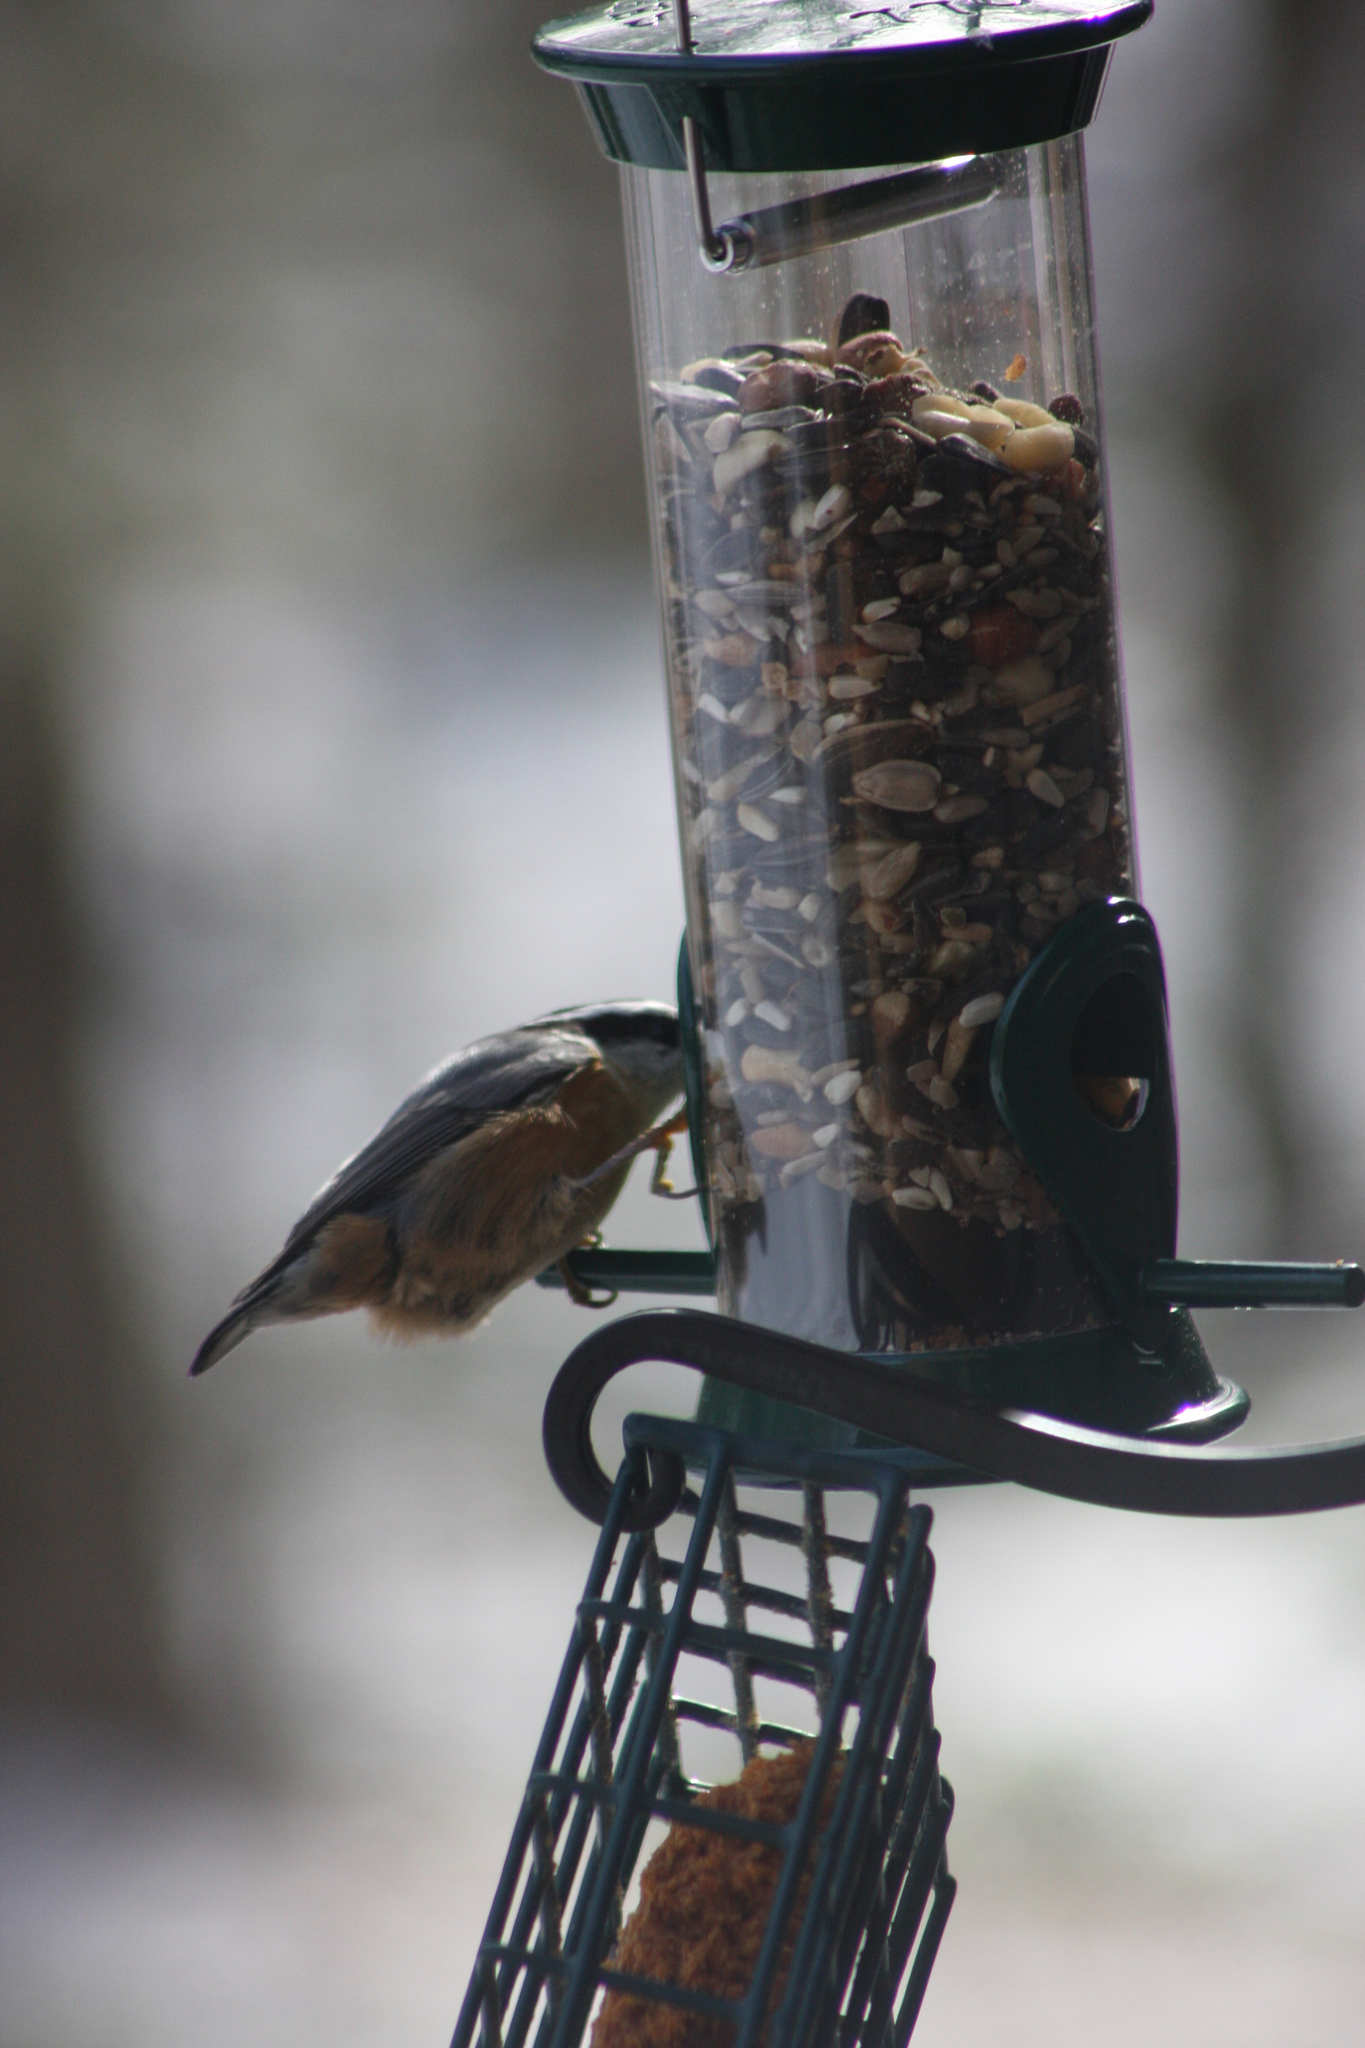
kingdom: Animalia
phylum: Chordata
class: Aves
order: Passeriformes
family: Sittidae
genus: Sitta
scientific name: Sitta canadensis
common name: Red-breasted nuthatch
